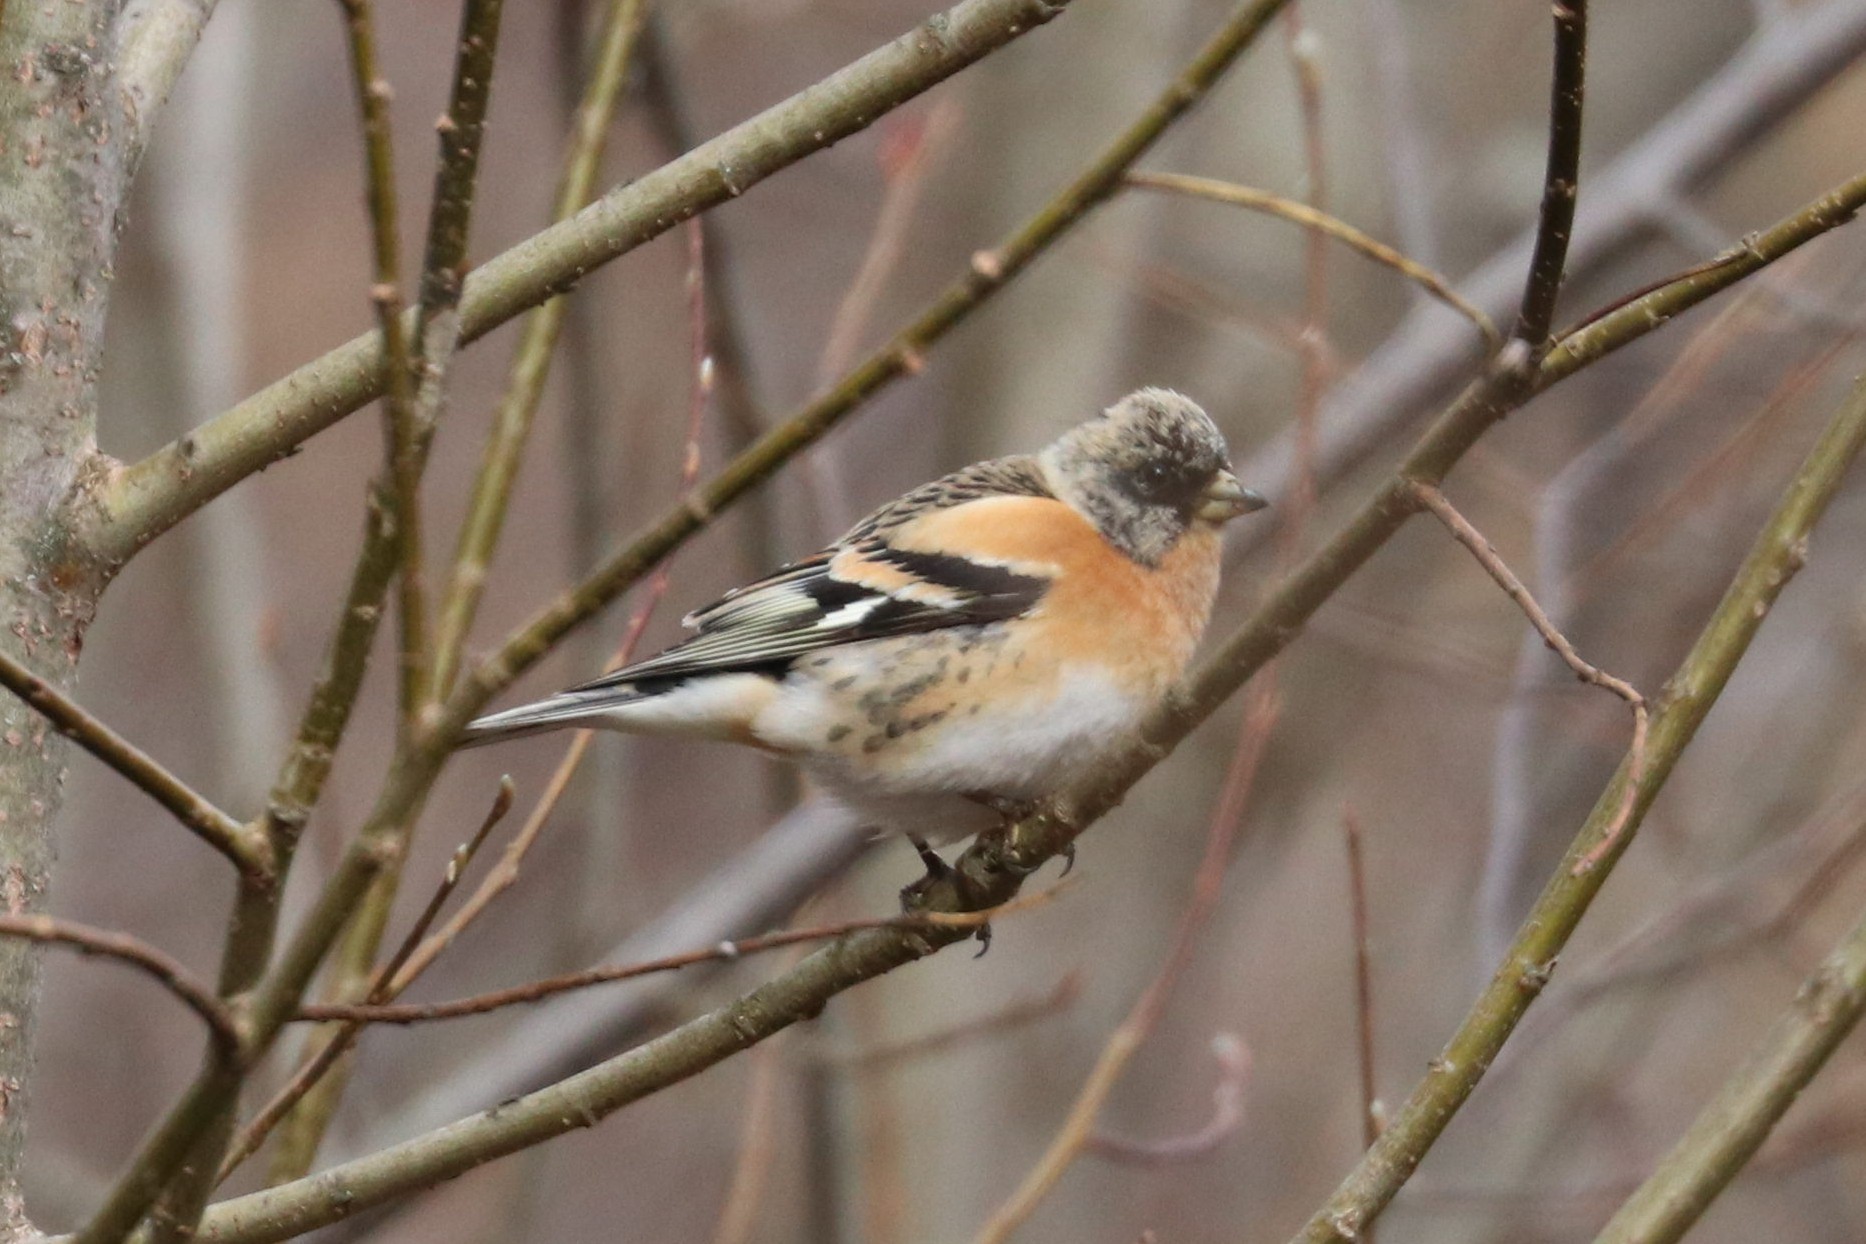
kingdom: Animalia
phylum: Chordata
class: Aves
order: Passeriformes
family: Fringillidae
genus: Fringilla
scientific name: Fringilla montifringilla
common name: Brambling
